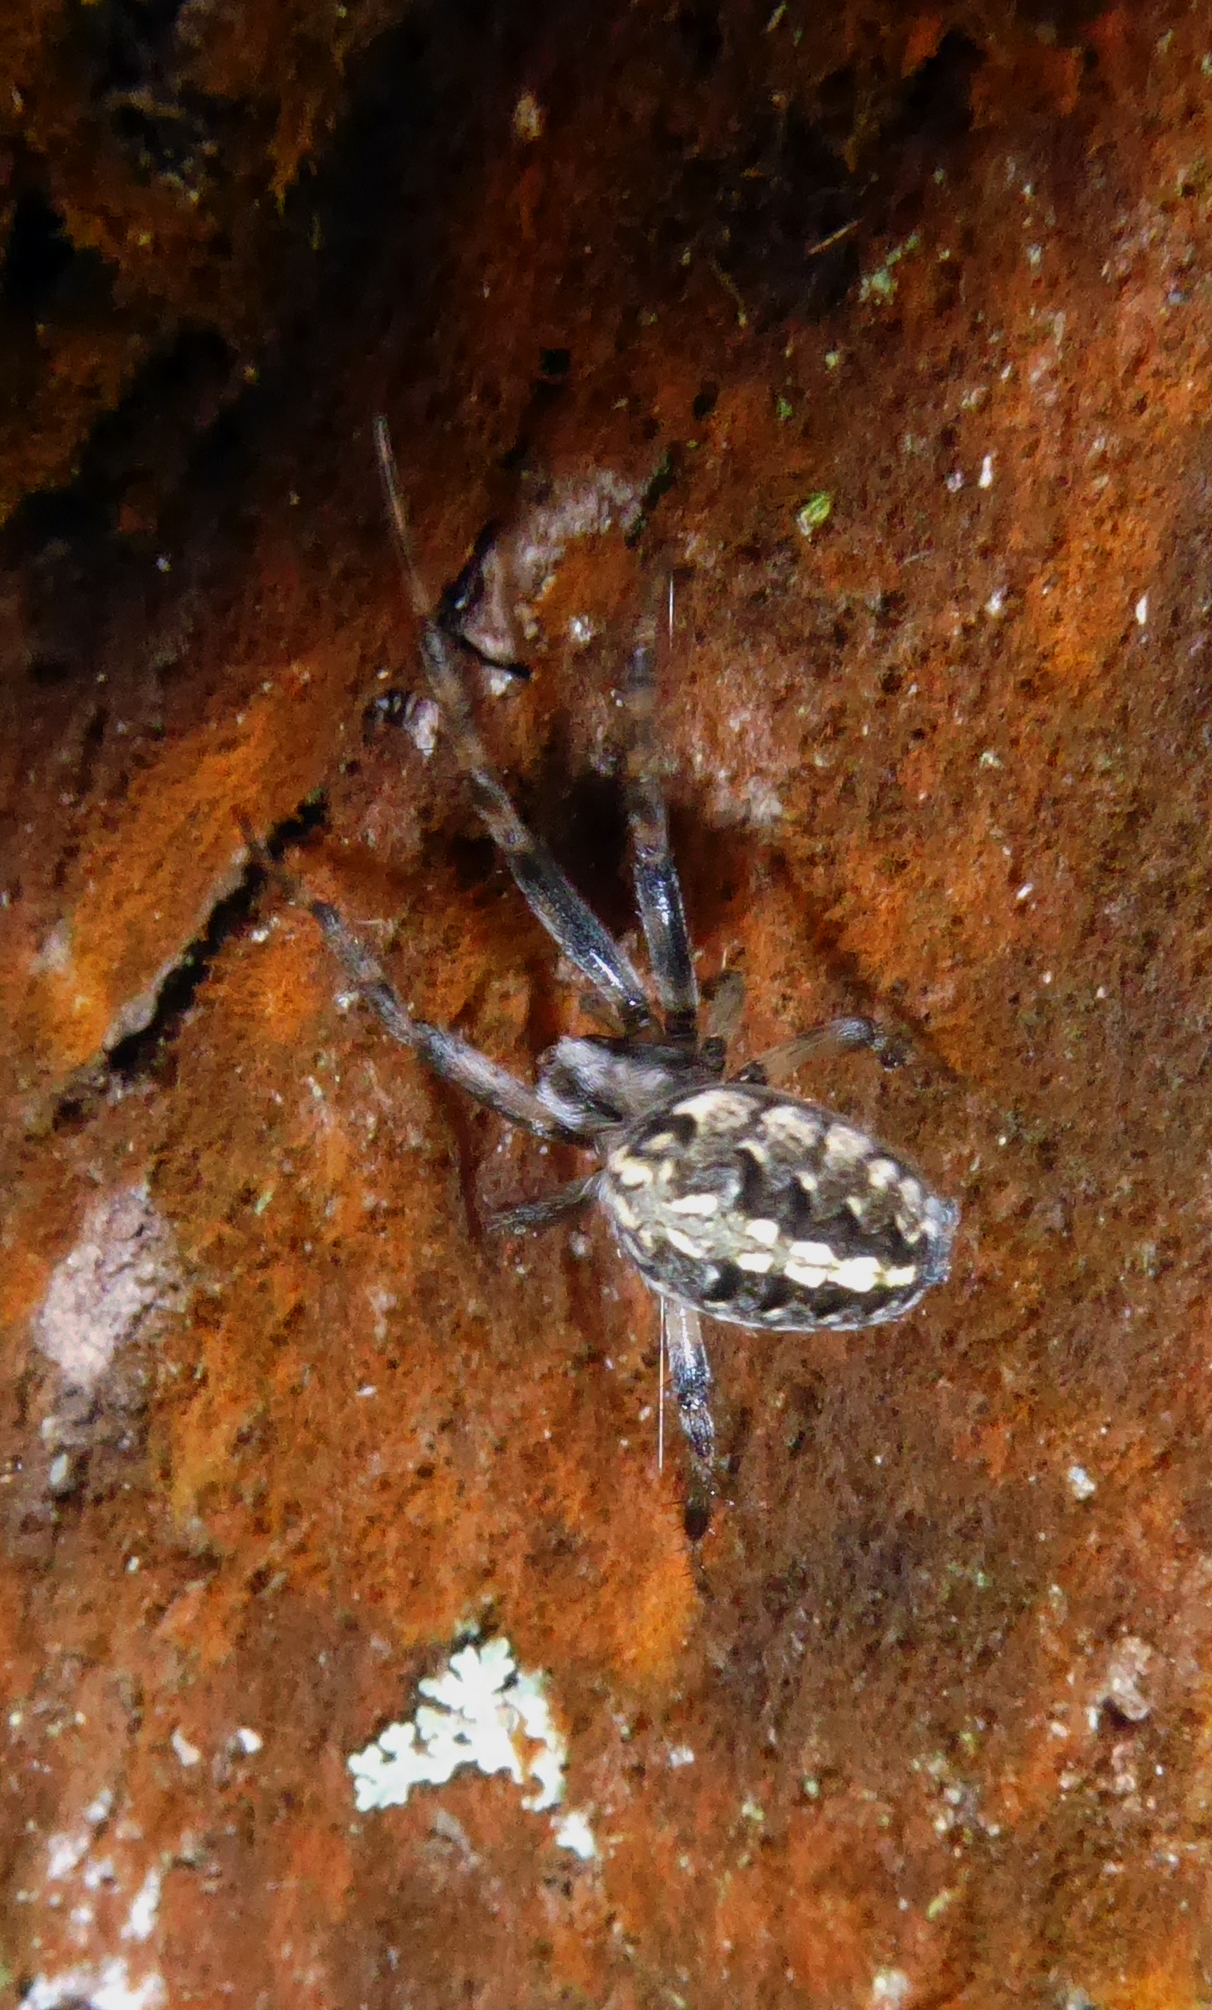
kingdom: Animalia
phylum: Arthropoda
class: Arachnida
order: Araneae
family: Araneidae
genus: Neoscona
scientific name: Neoscona theisi
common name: Spider
